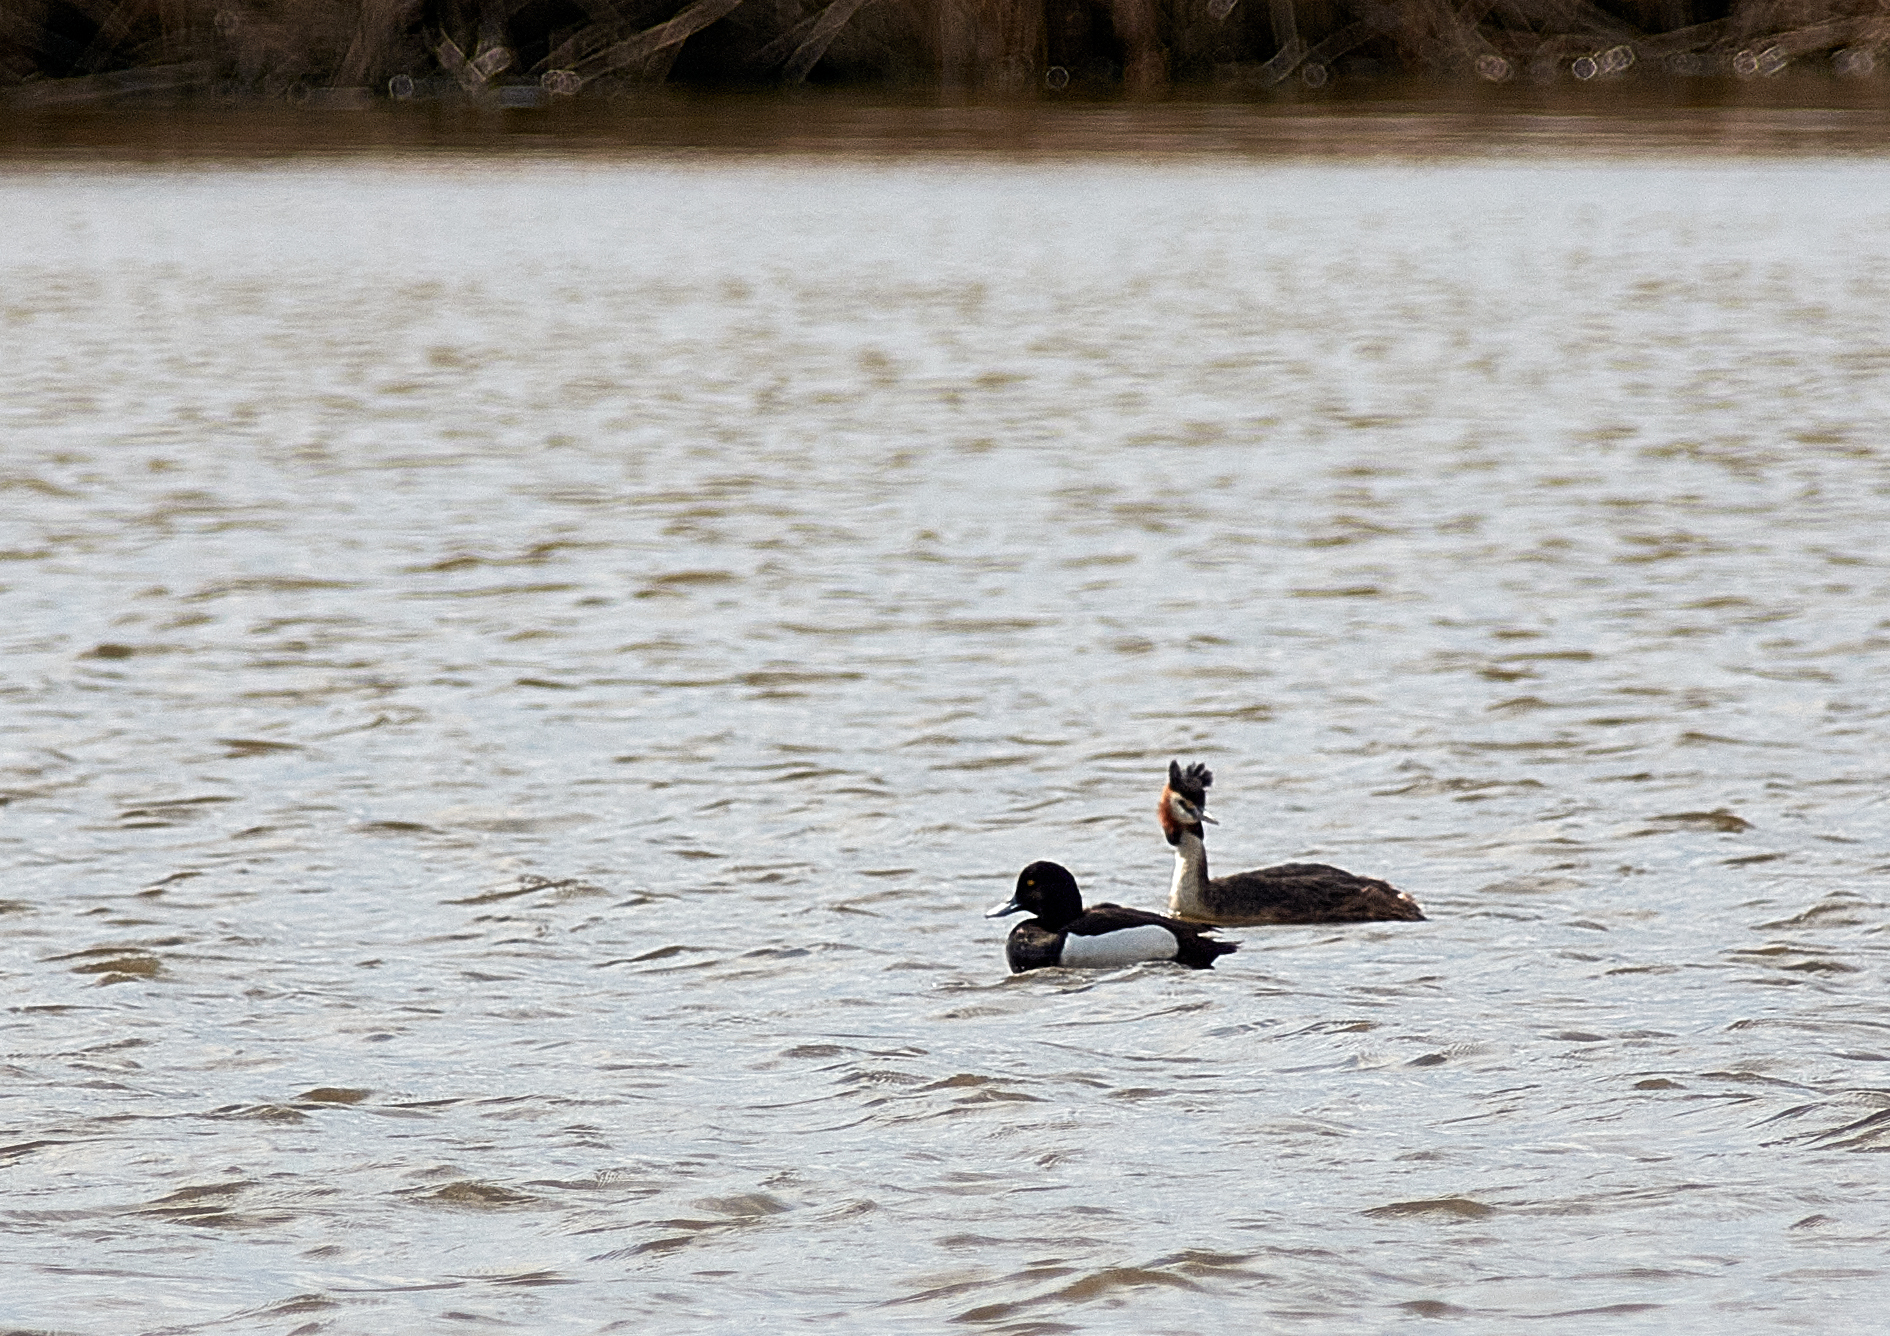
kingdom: Animalia
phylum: Chordata
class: Aves
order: Anseriformes
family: Anatidae
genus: Aythya
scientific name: Aythya fuligula
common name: Tufted duck
